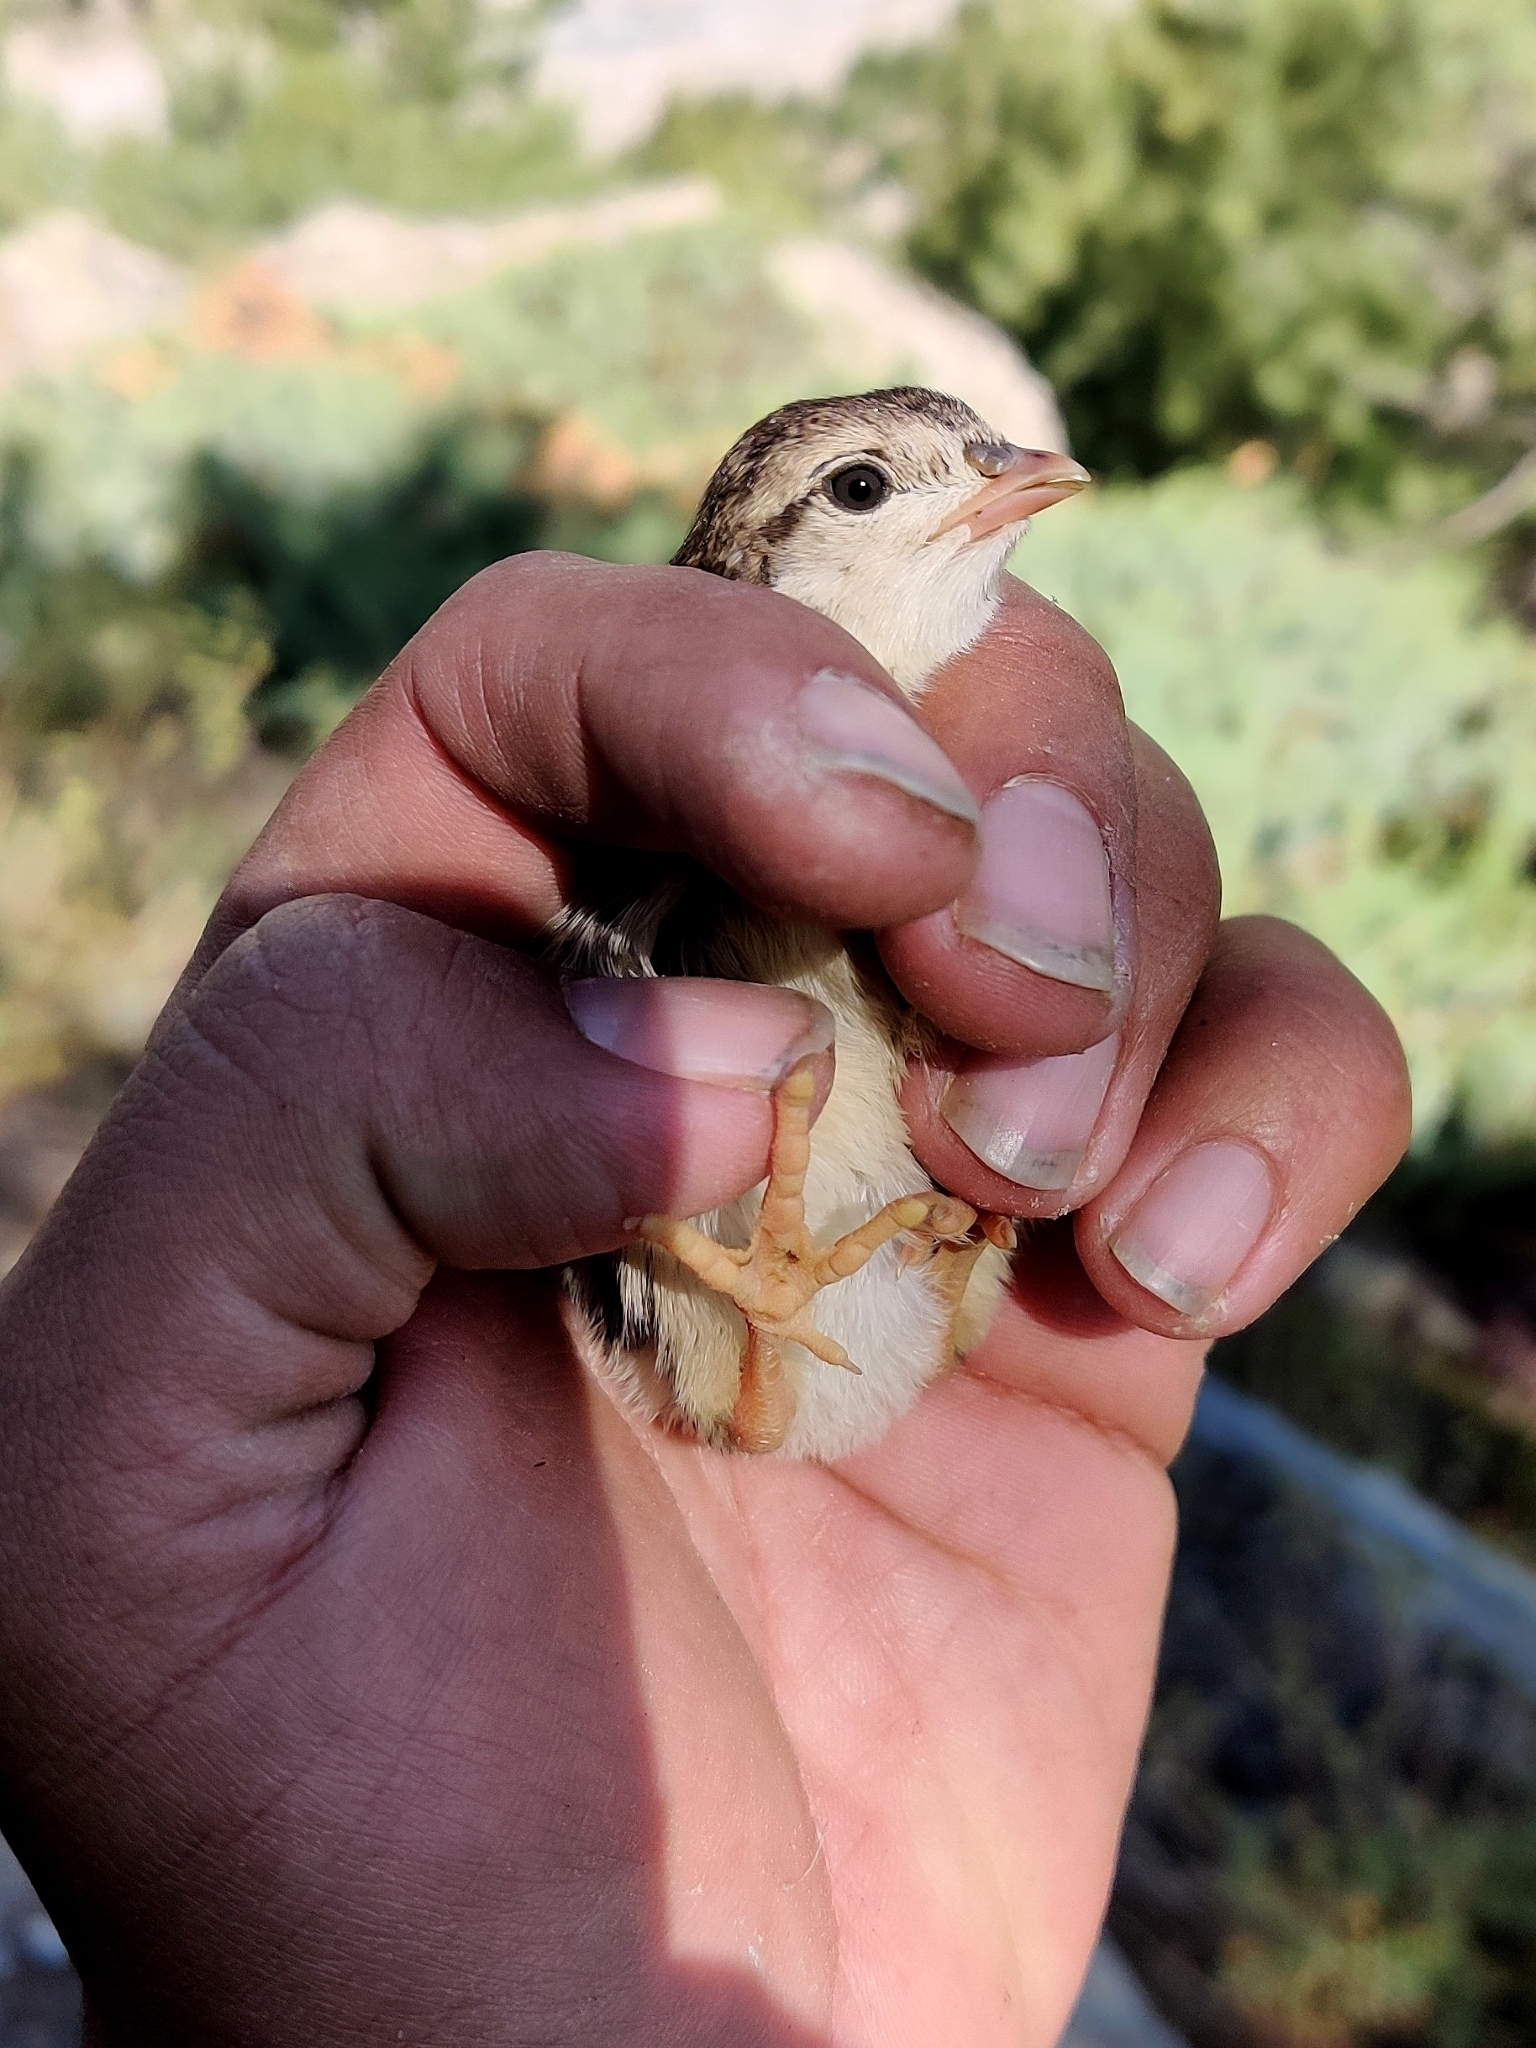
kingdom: Animalia
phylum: Chordata
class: Aves
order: Galliformes
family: Phasianidae
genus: Alectoris
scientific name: Alectoris chukar
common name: Chukar
